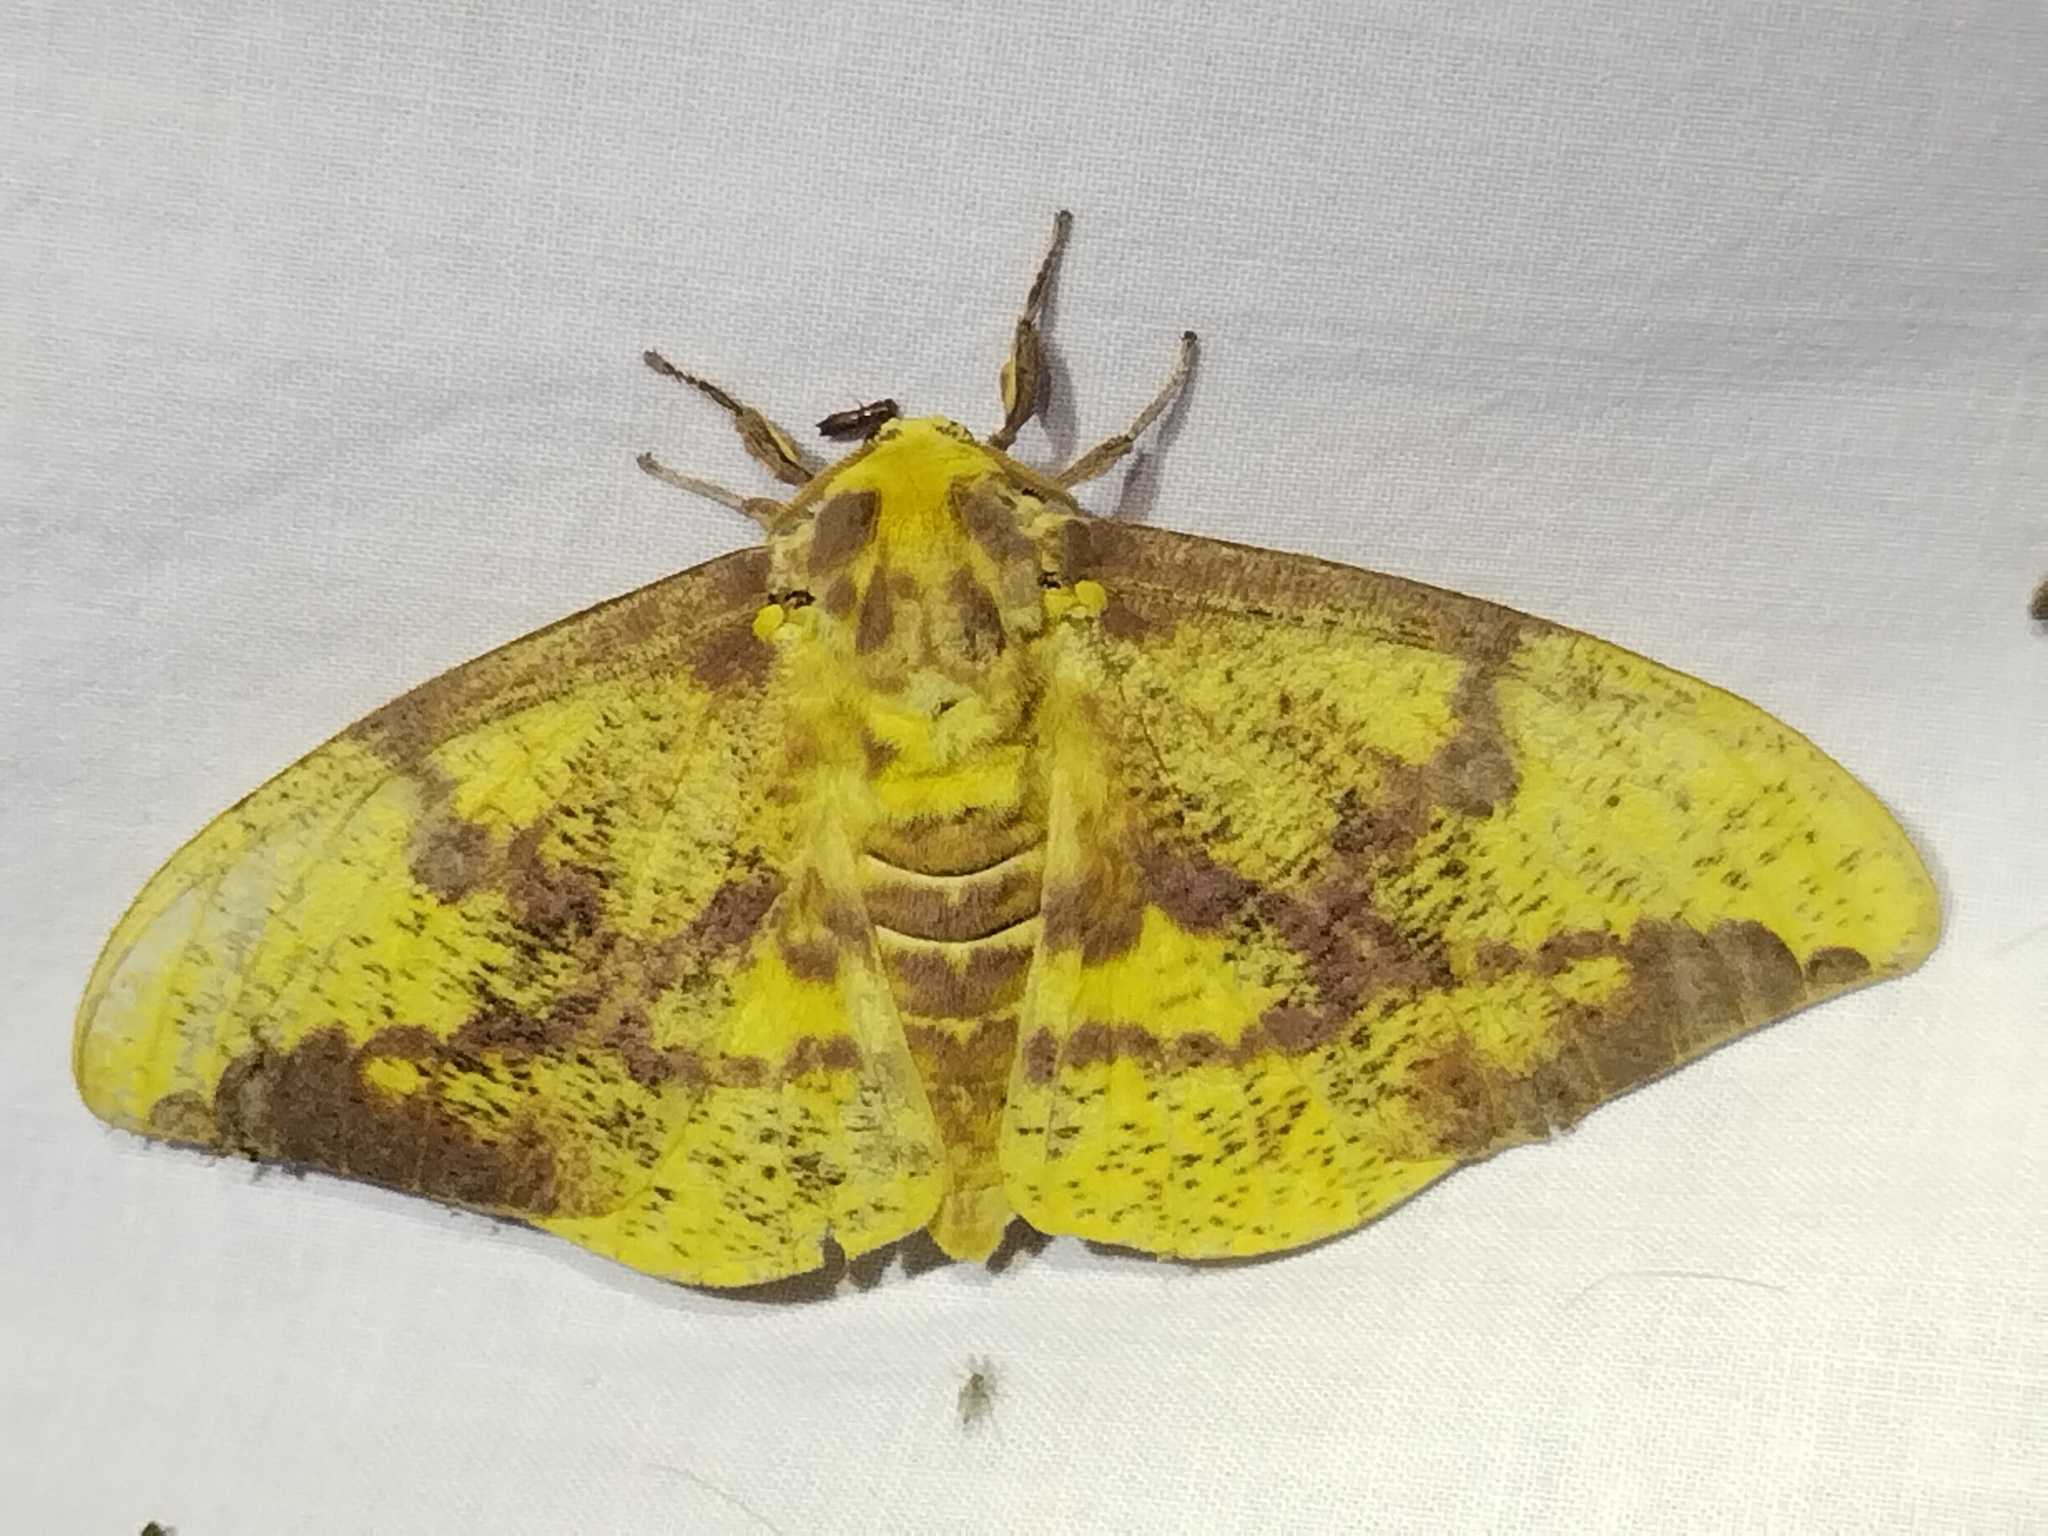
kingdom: Animalia
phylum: Arthropoda
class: Insecta
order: Lepidoptera
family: Saturniidae
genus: Eacles
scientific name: Eacles imperialis
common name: Imperial moth
